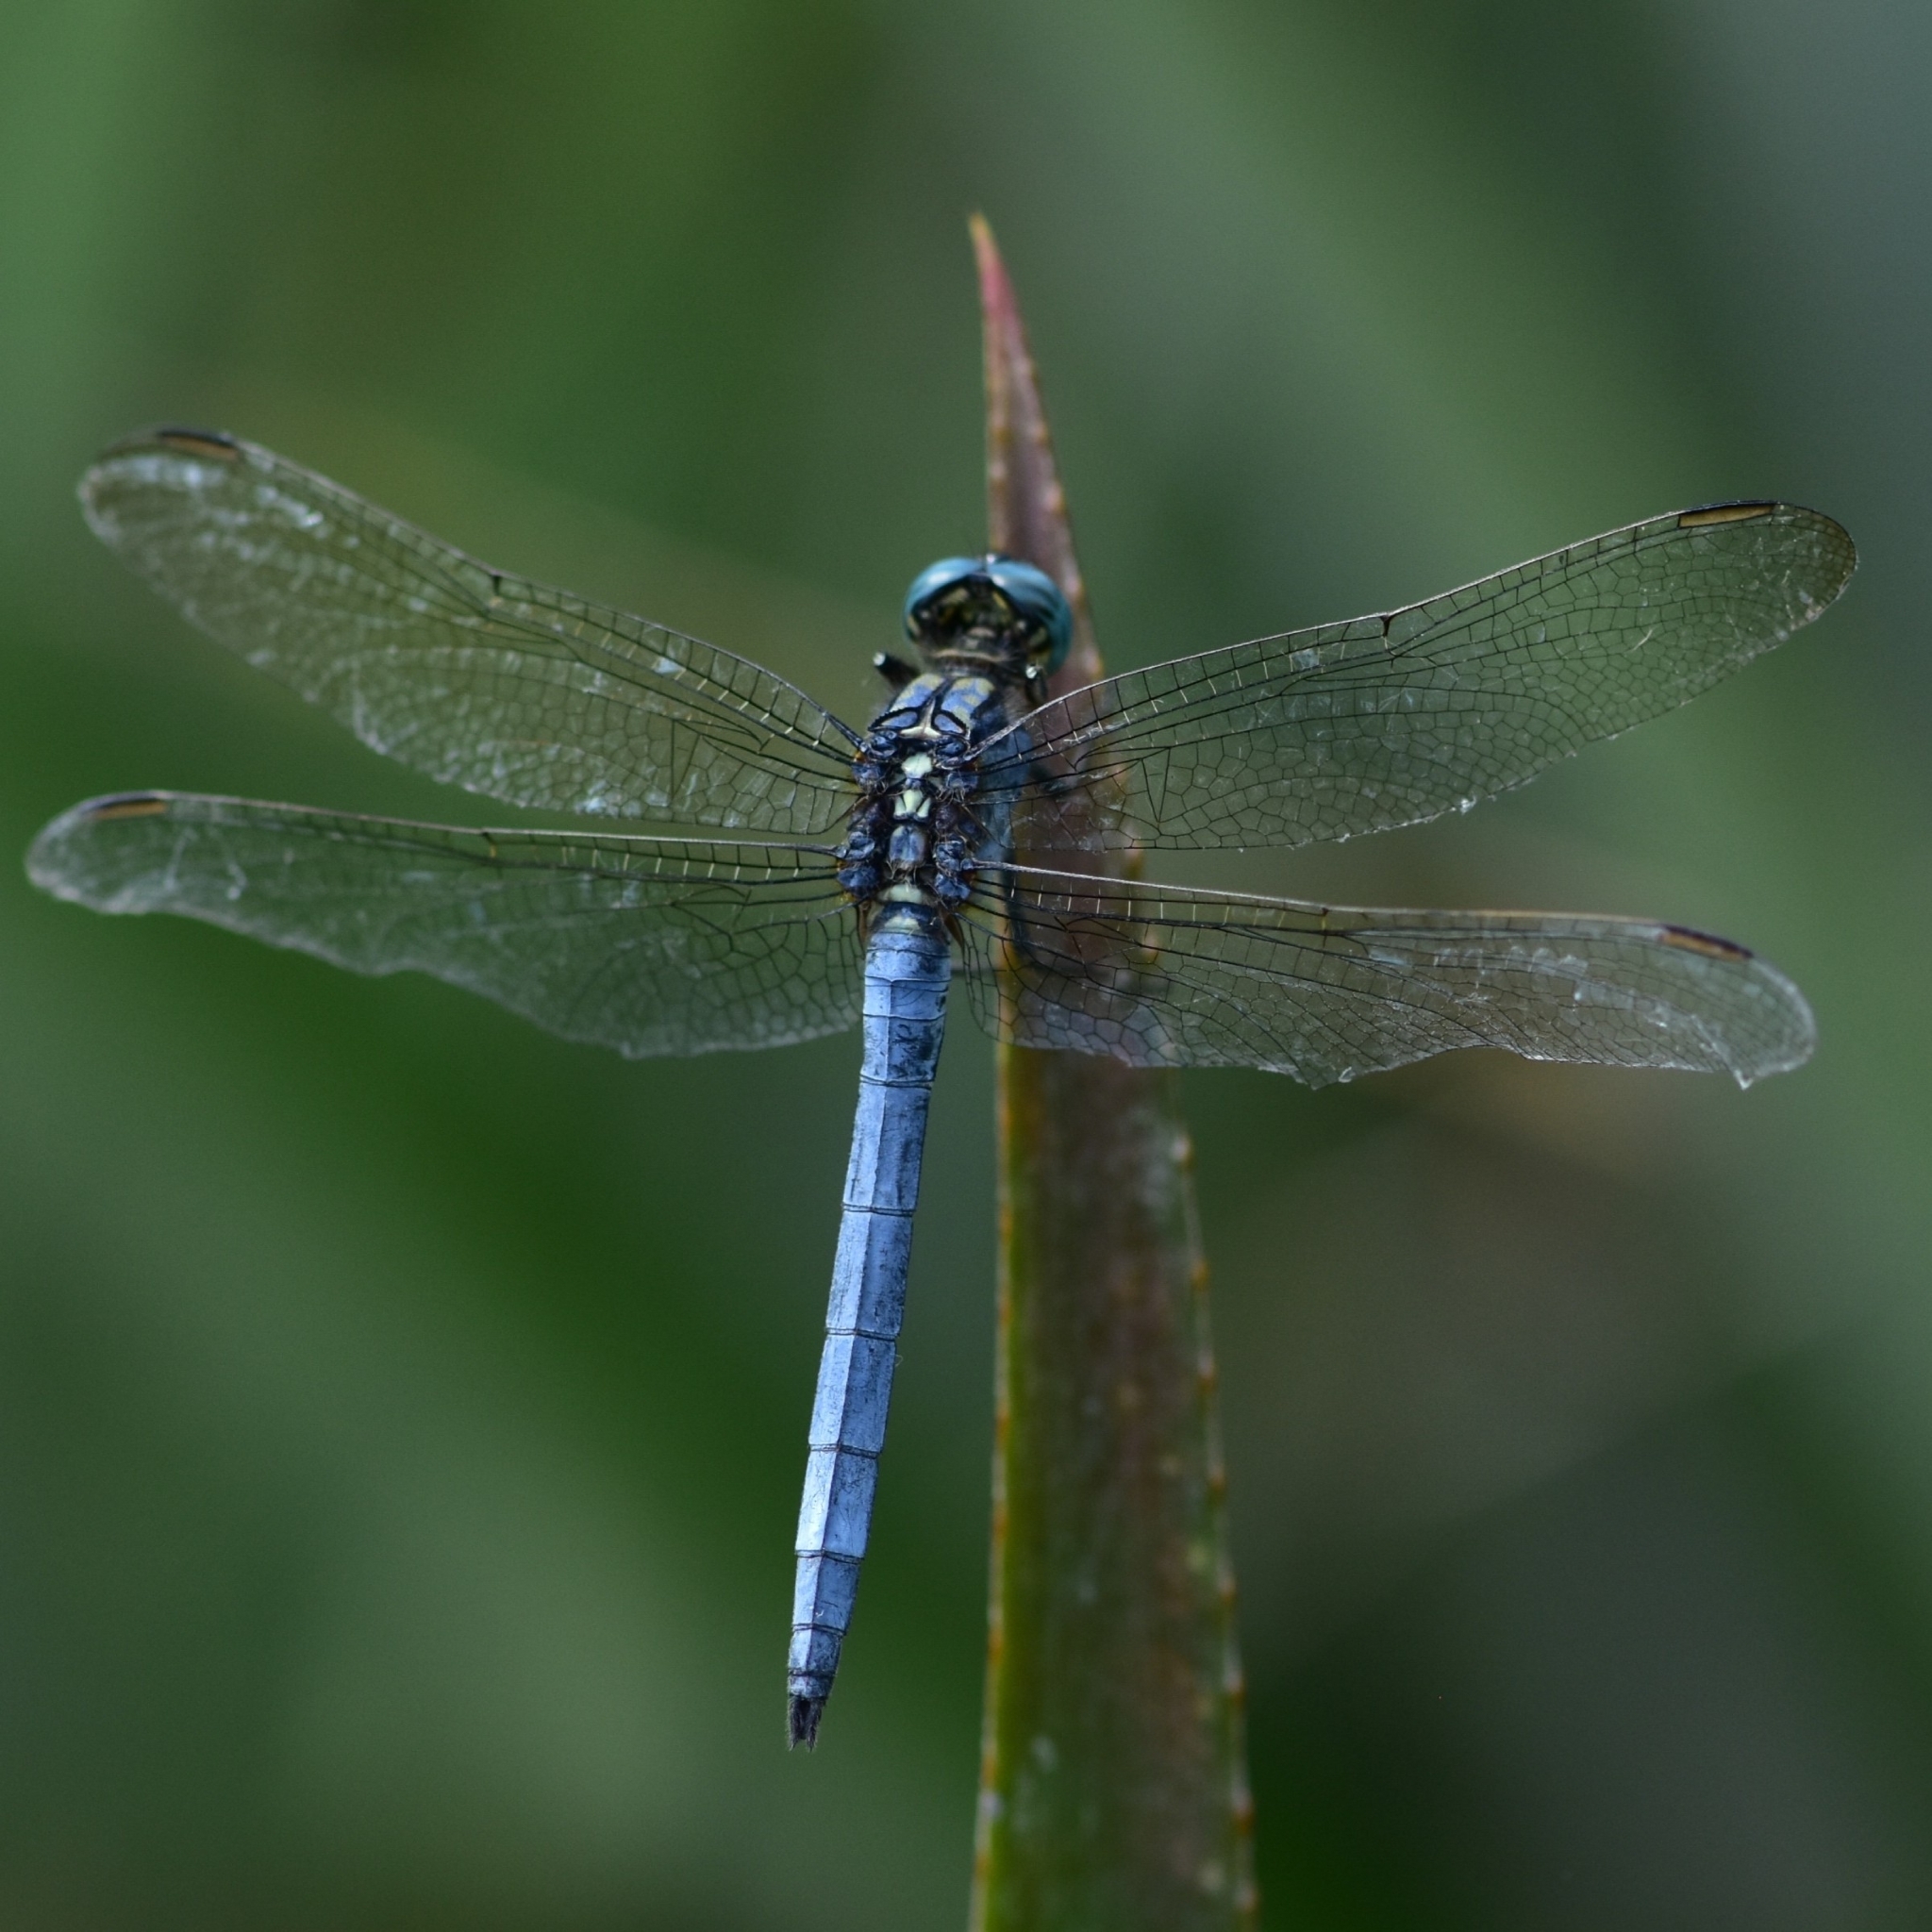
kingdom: Animalia
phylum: Arthropoda
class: Insecta
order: Odonata
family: Libellulidae
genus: Orthetrum
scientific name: Orthetrum luzonicum
